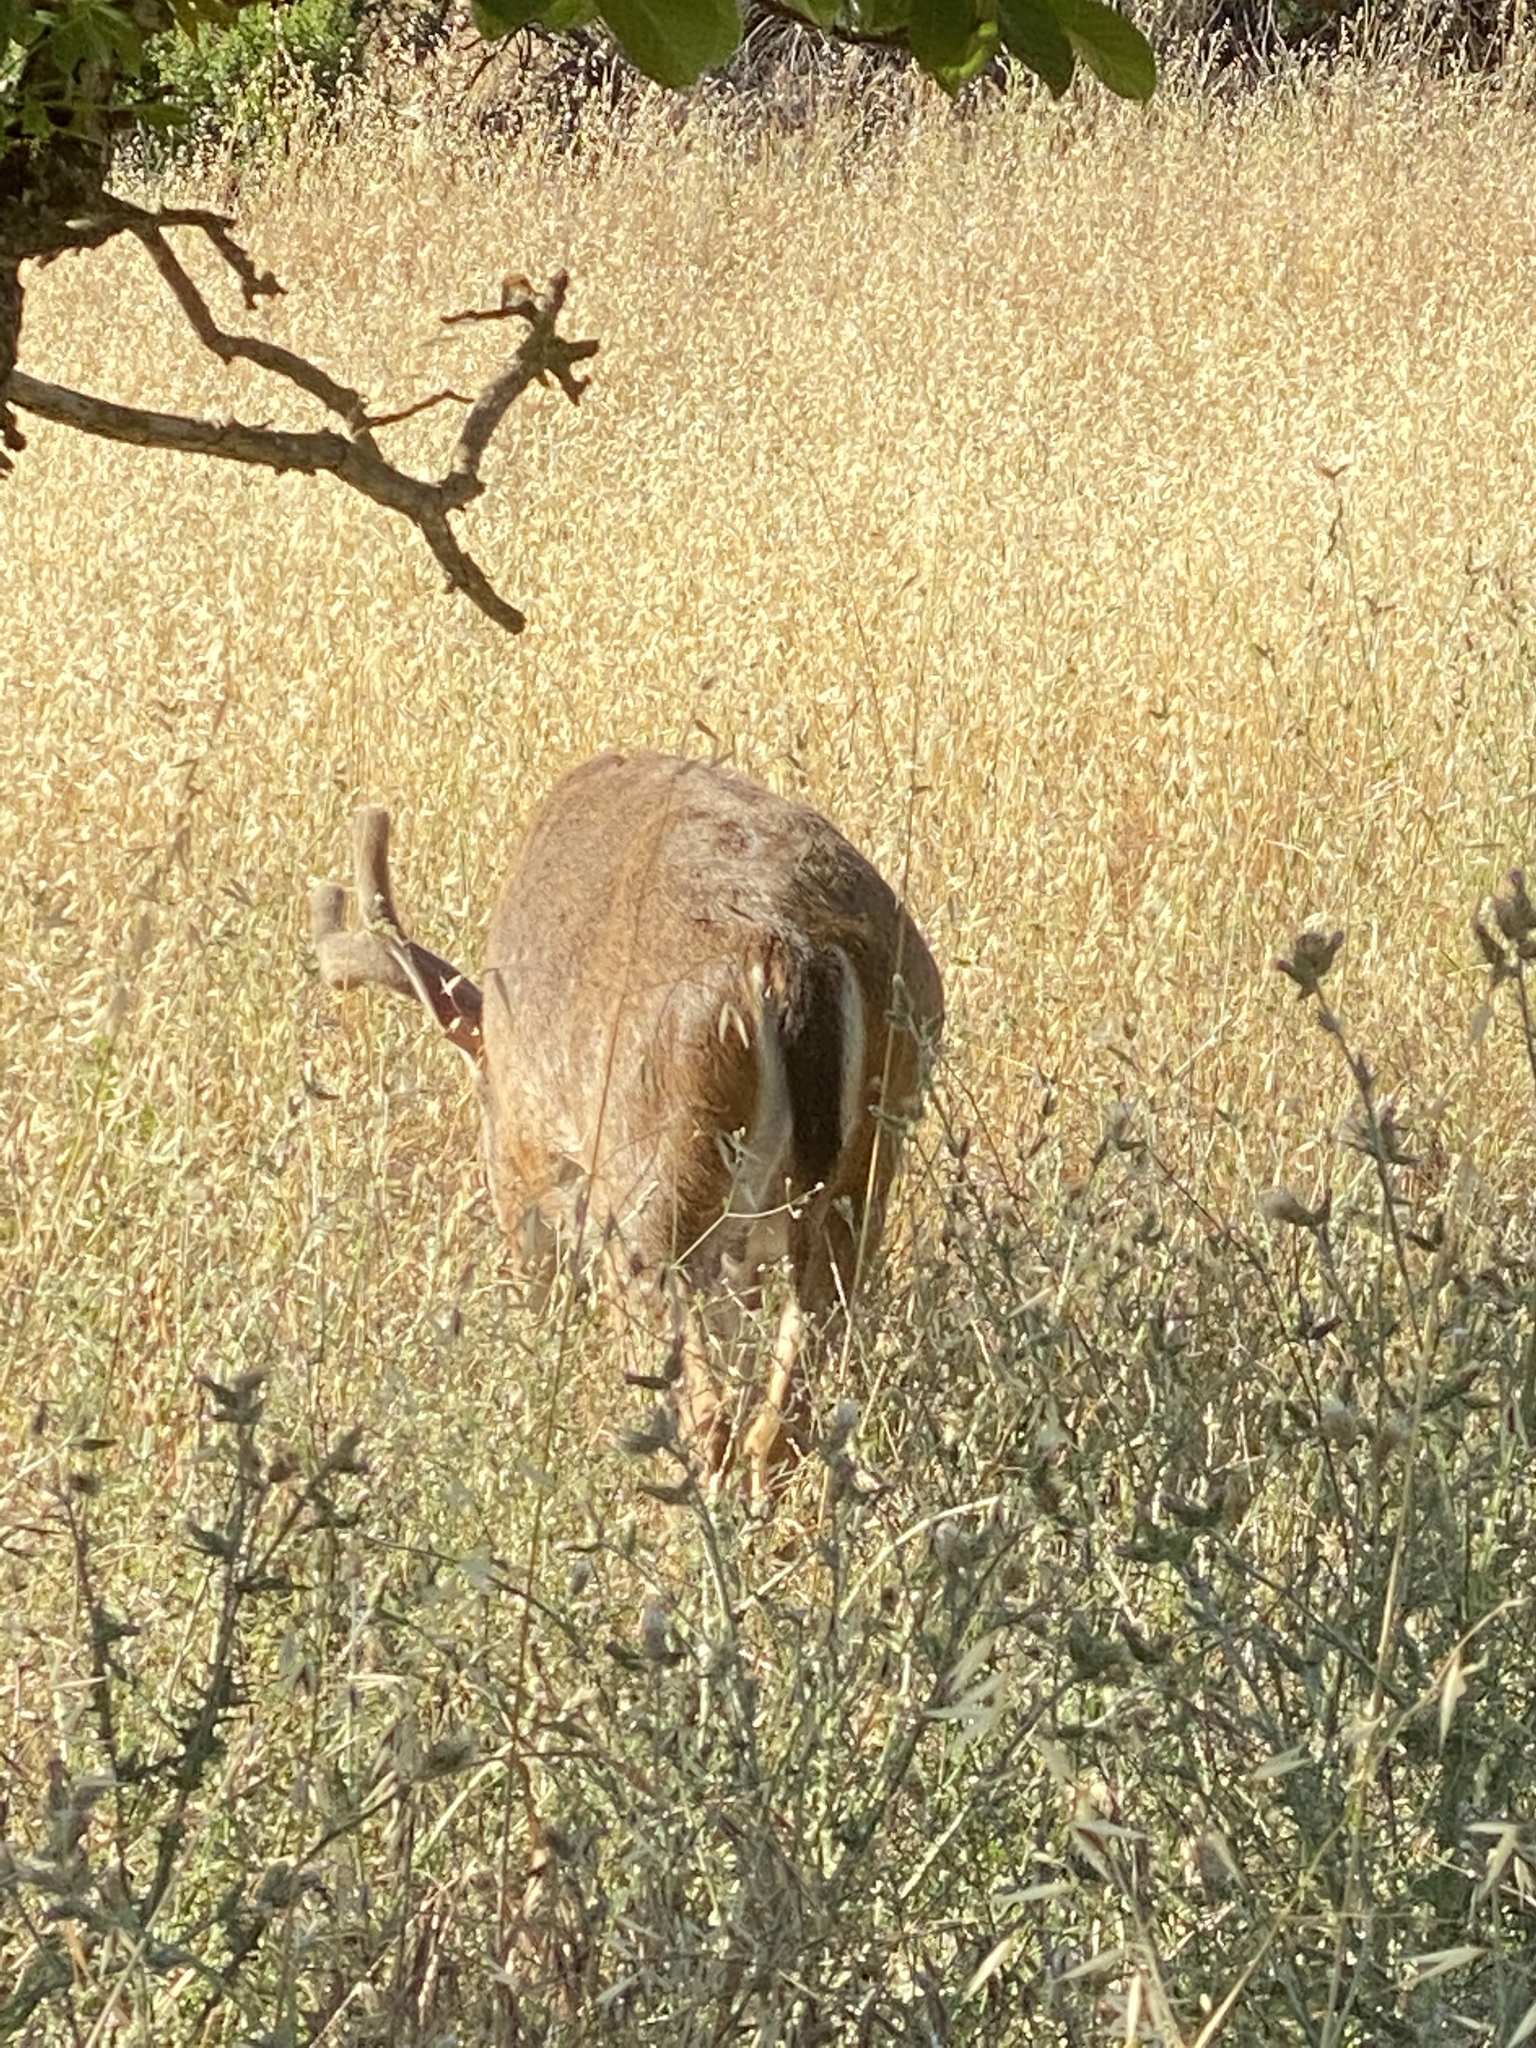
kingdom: Animalia
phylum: Chordata
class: Mammalia
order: Artiodactyla
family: Cervidae
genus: Odocoileus
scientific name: Odocoileus hemionus
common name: Mule deer
